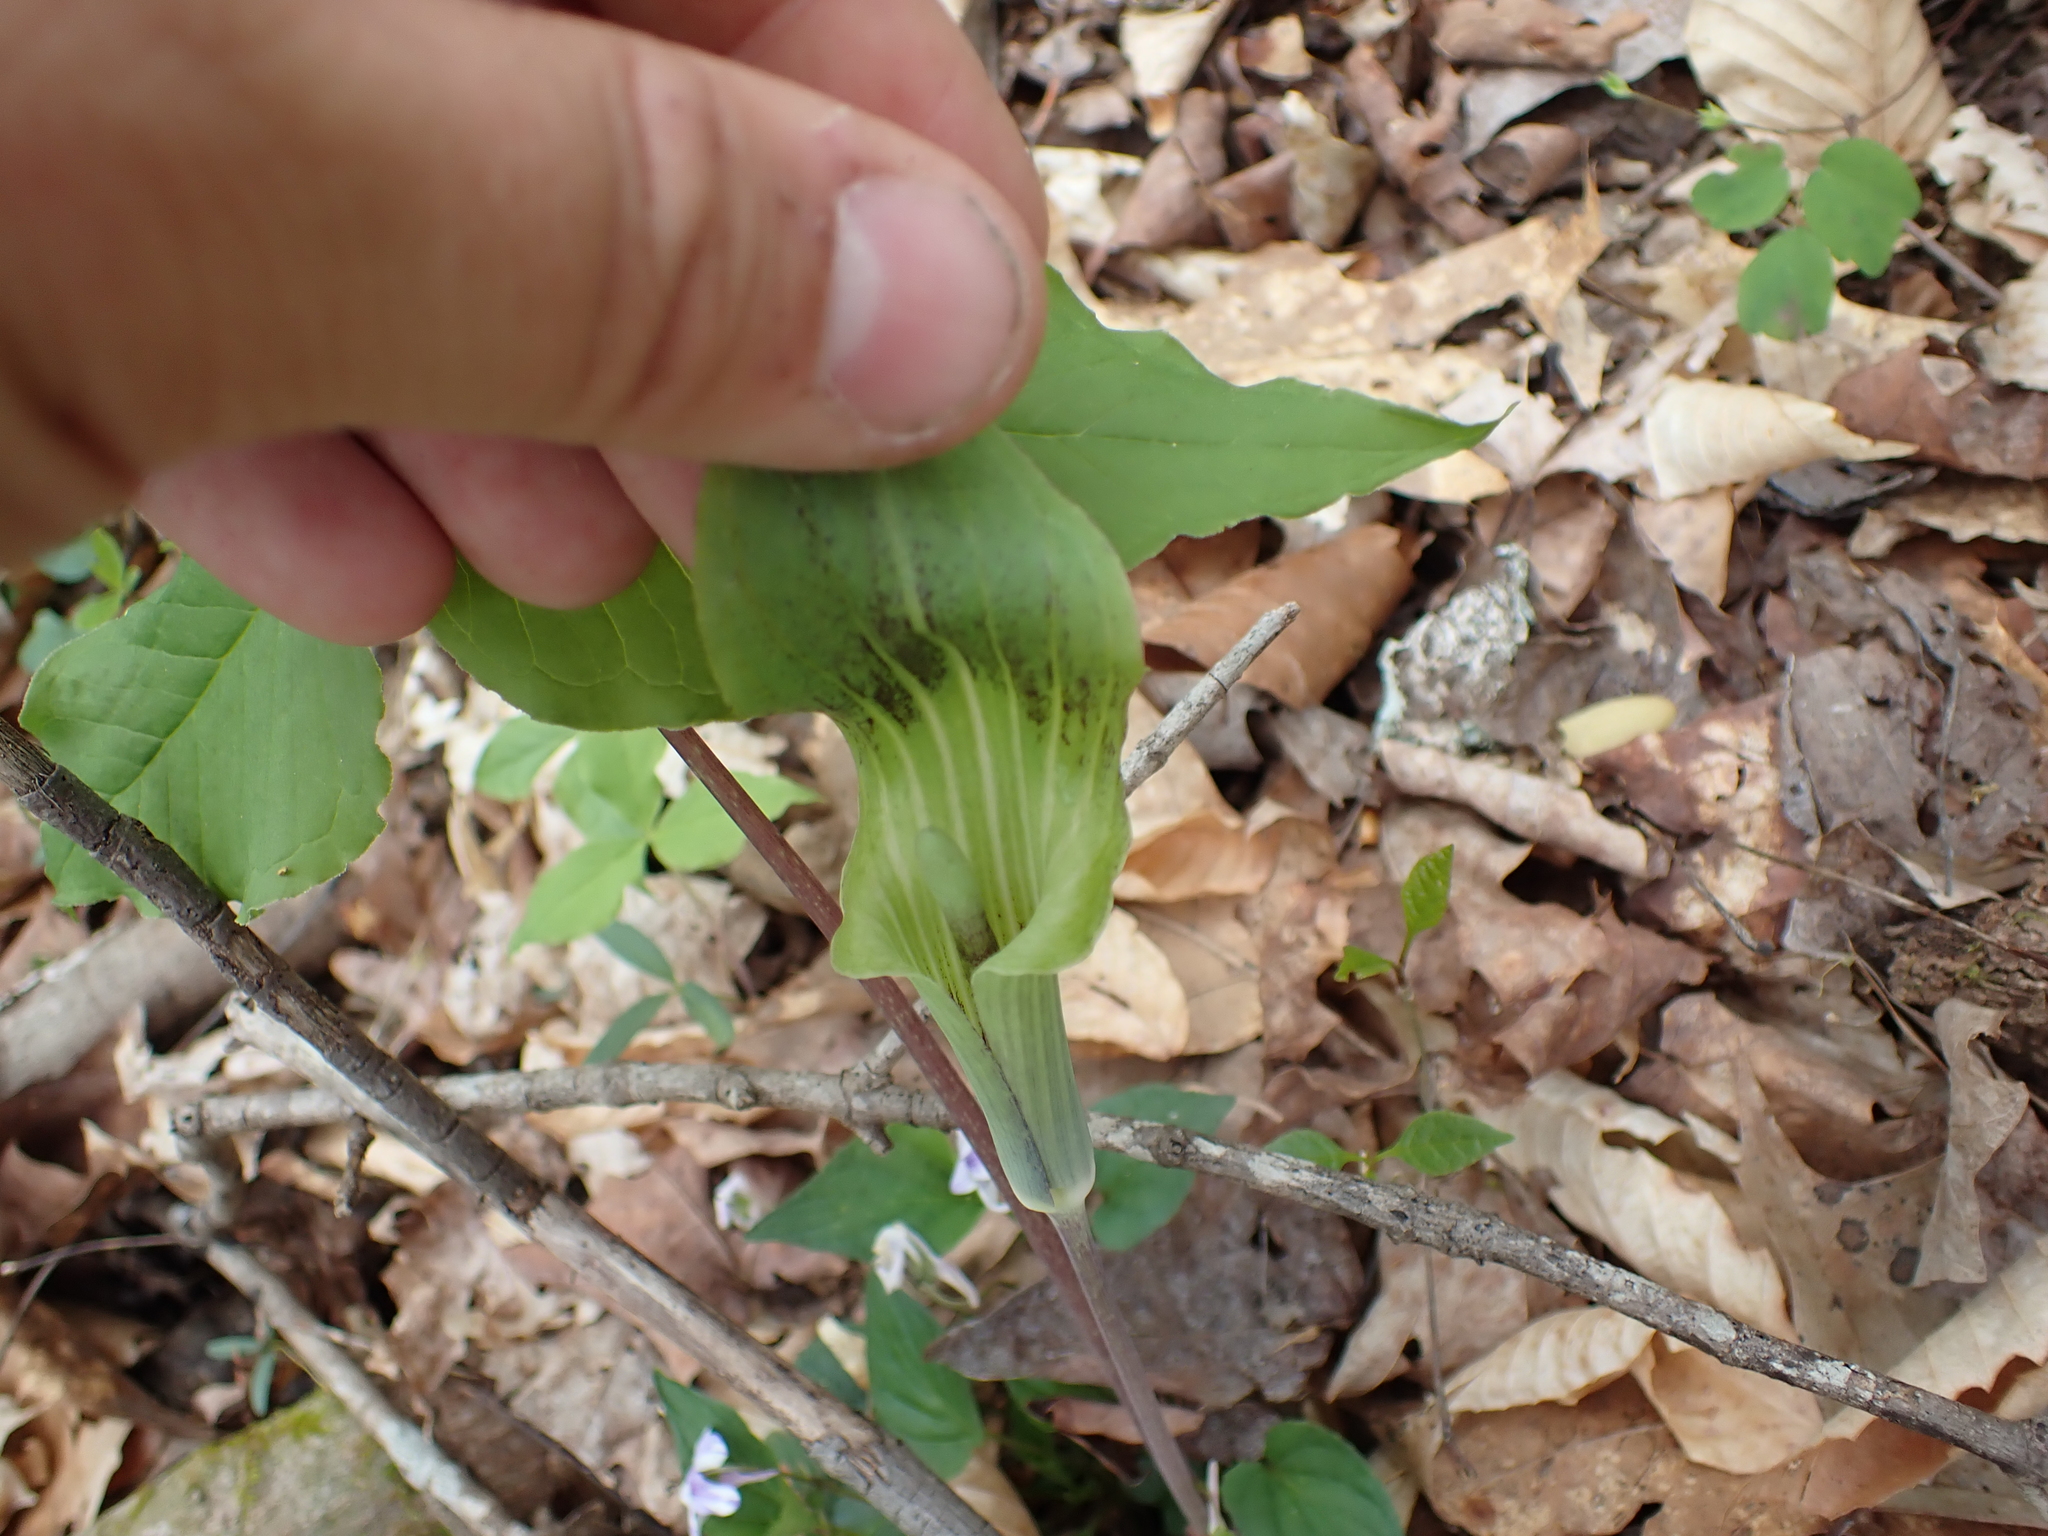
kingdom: Plantae
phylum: Tracheophyta
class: Liliopsida
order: Alismatales
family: Araceae
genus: Arisaema
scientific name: Arisaema triphyllum
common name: Jack-in-the-pulpit
